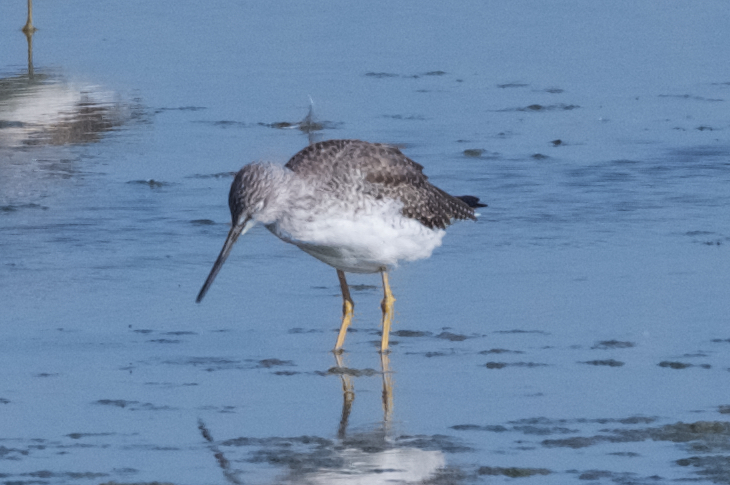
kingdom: Animalia
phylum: Chordata
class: Aves
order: Charadriiformes
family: Scolopacidae
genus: Tringa
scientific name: Tringa melanoleuca
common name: Greater yellowlegs
